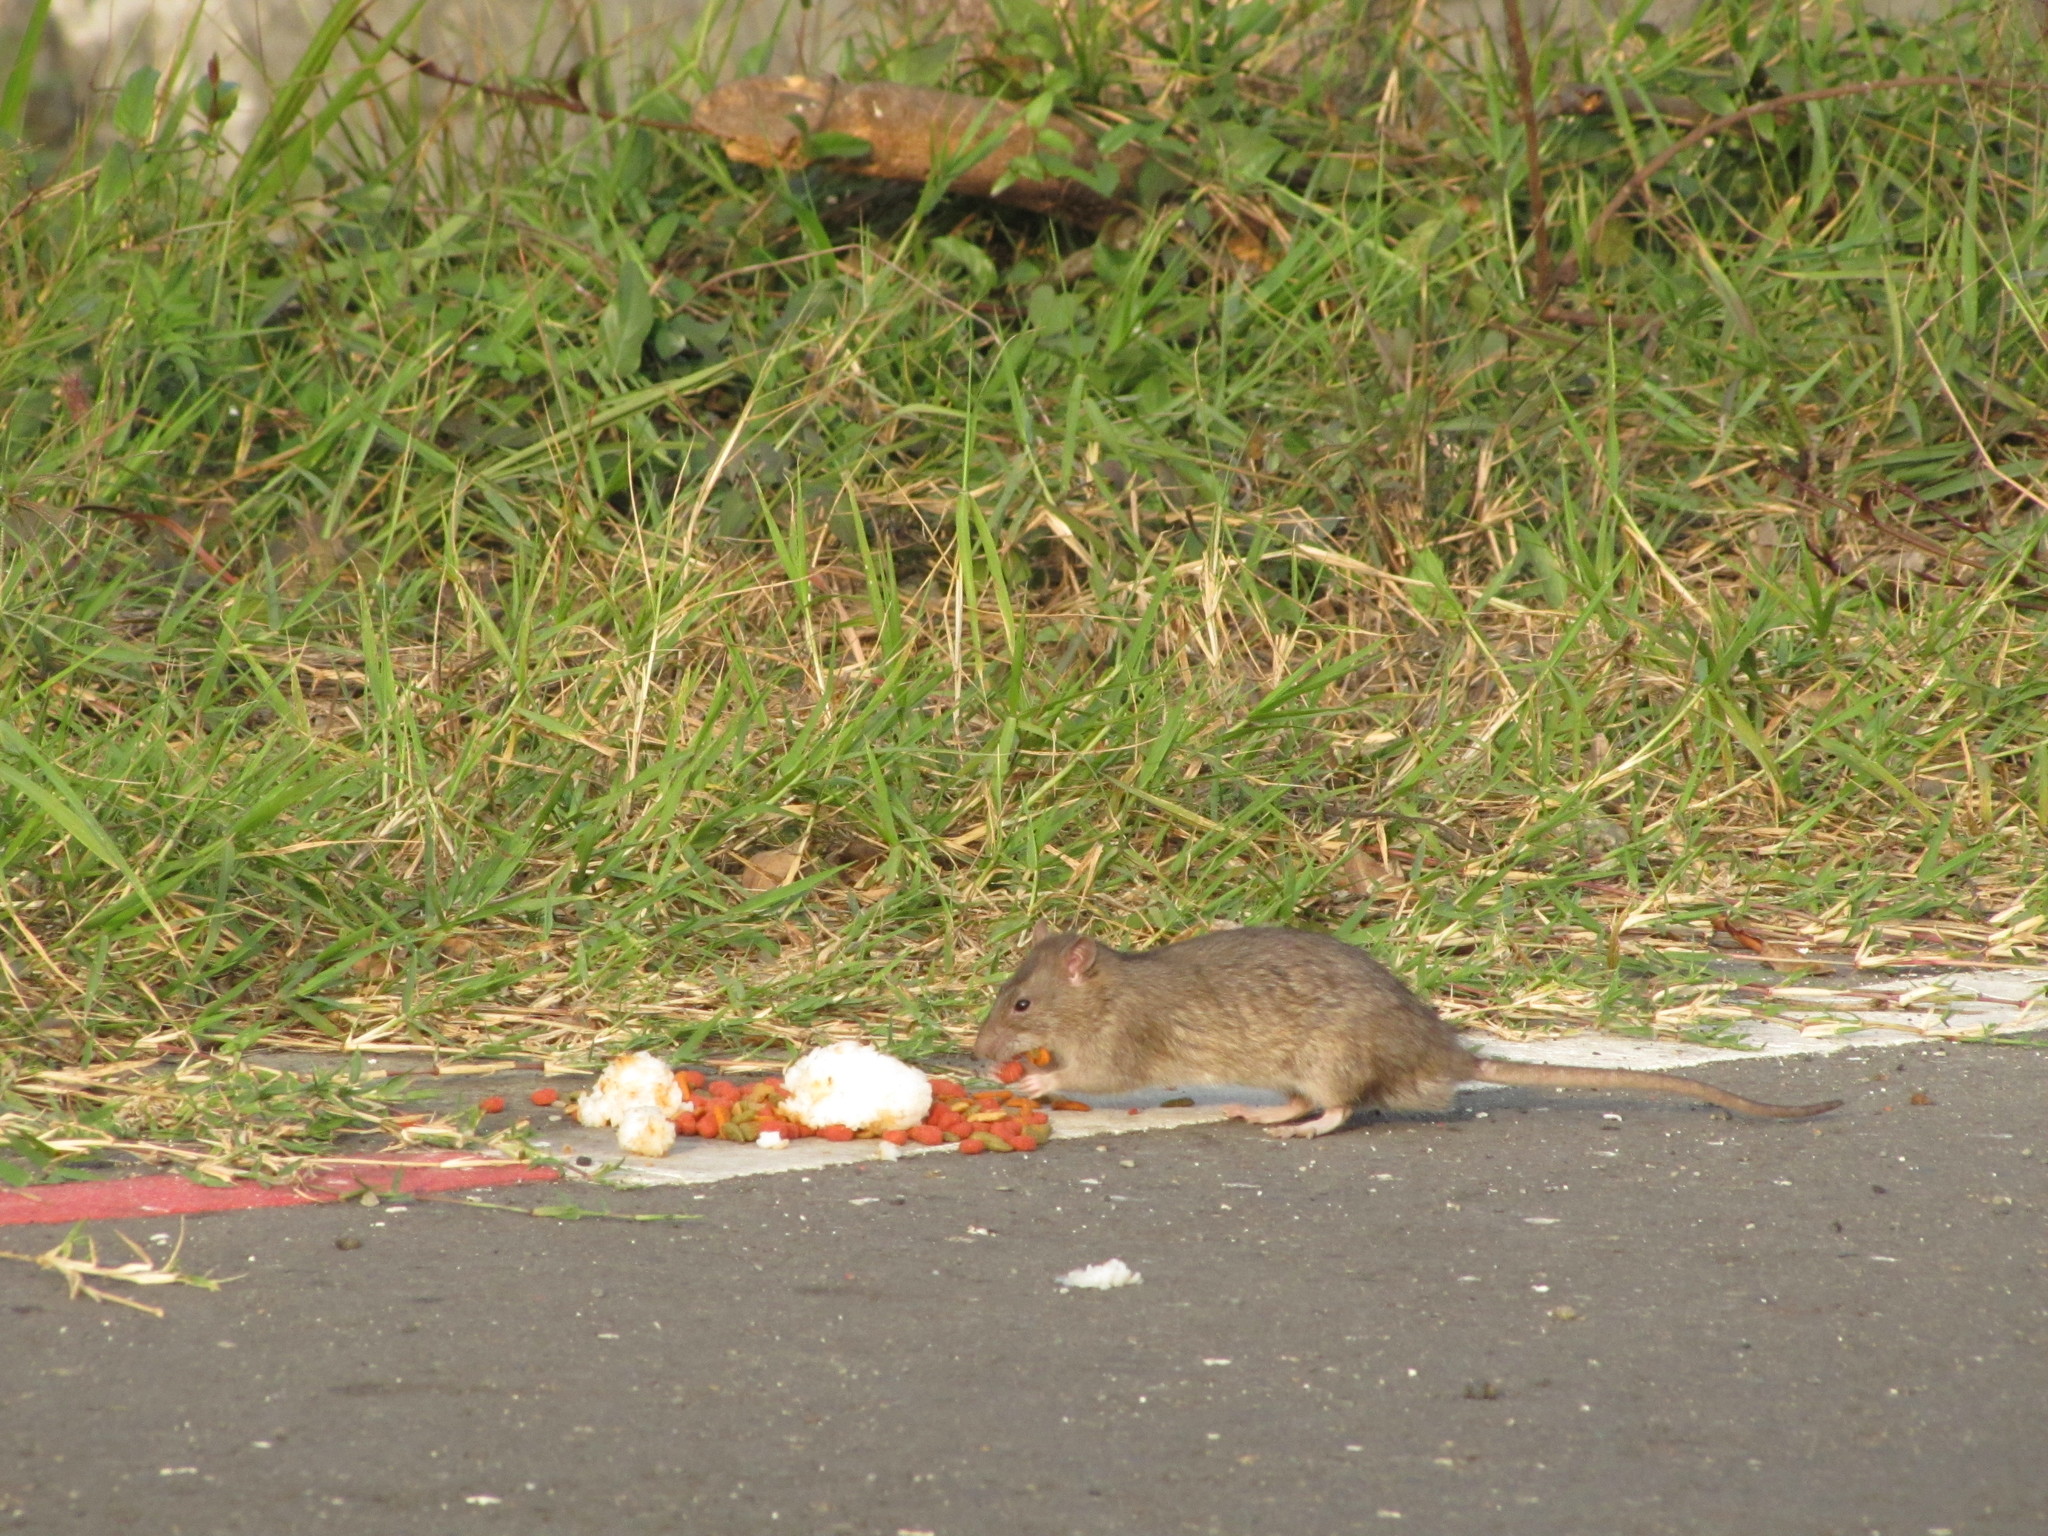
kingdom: Animalia
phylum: Chordata
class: Mammalia
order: Rodentia
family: Muridae
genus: Rattus
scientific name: Rattus norvegicus
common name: Brown rat
